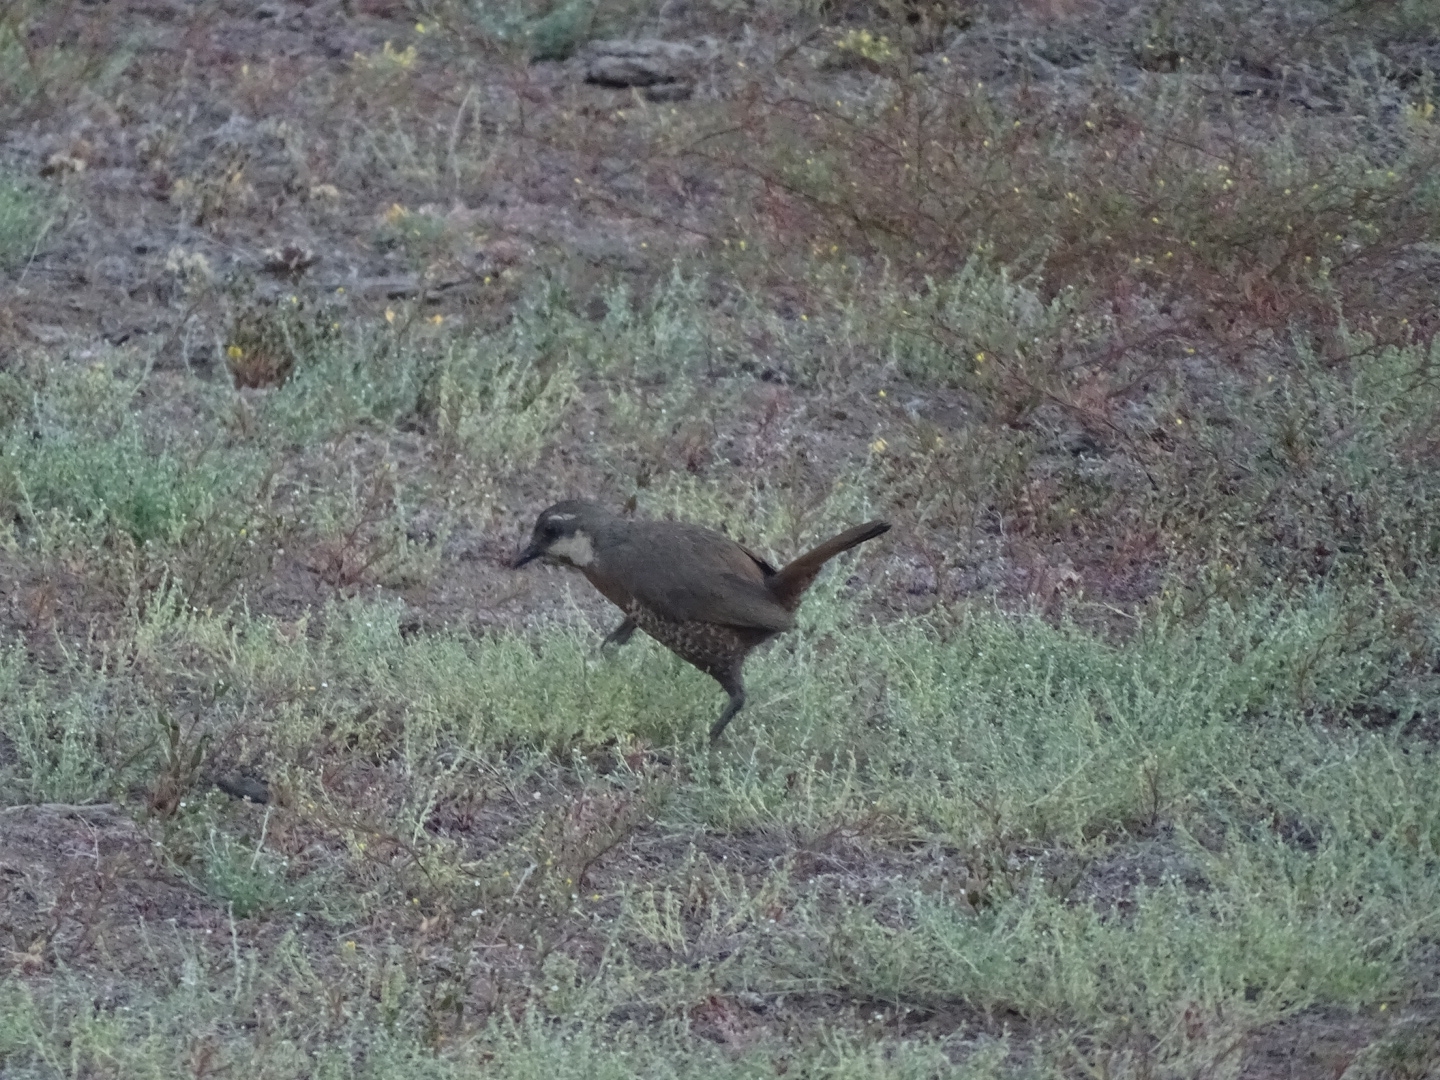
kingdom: Animalia
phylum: Chordata
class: Aves
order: Passeriformes
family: Rhinocryptidae
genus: Pteroptochos
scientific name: Pteroptochos megapodius
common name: Moustached turca
